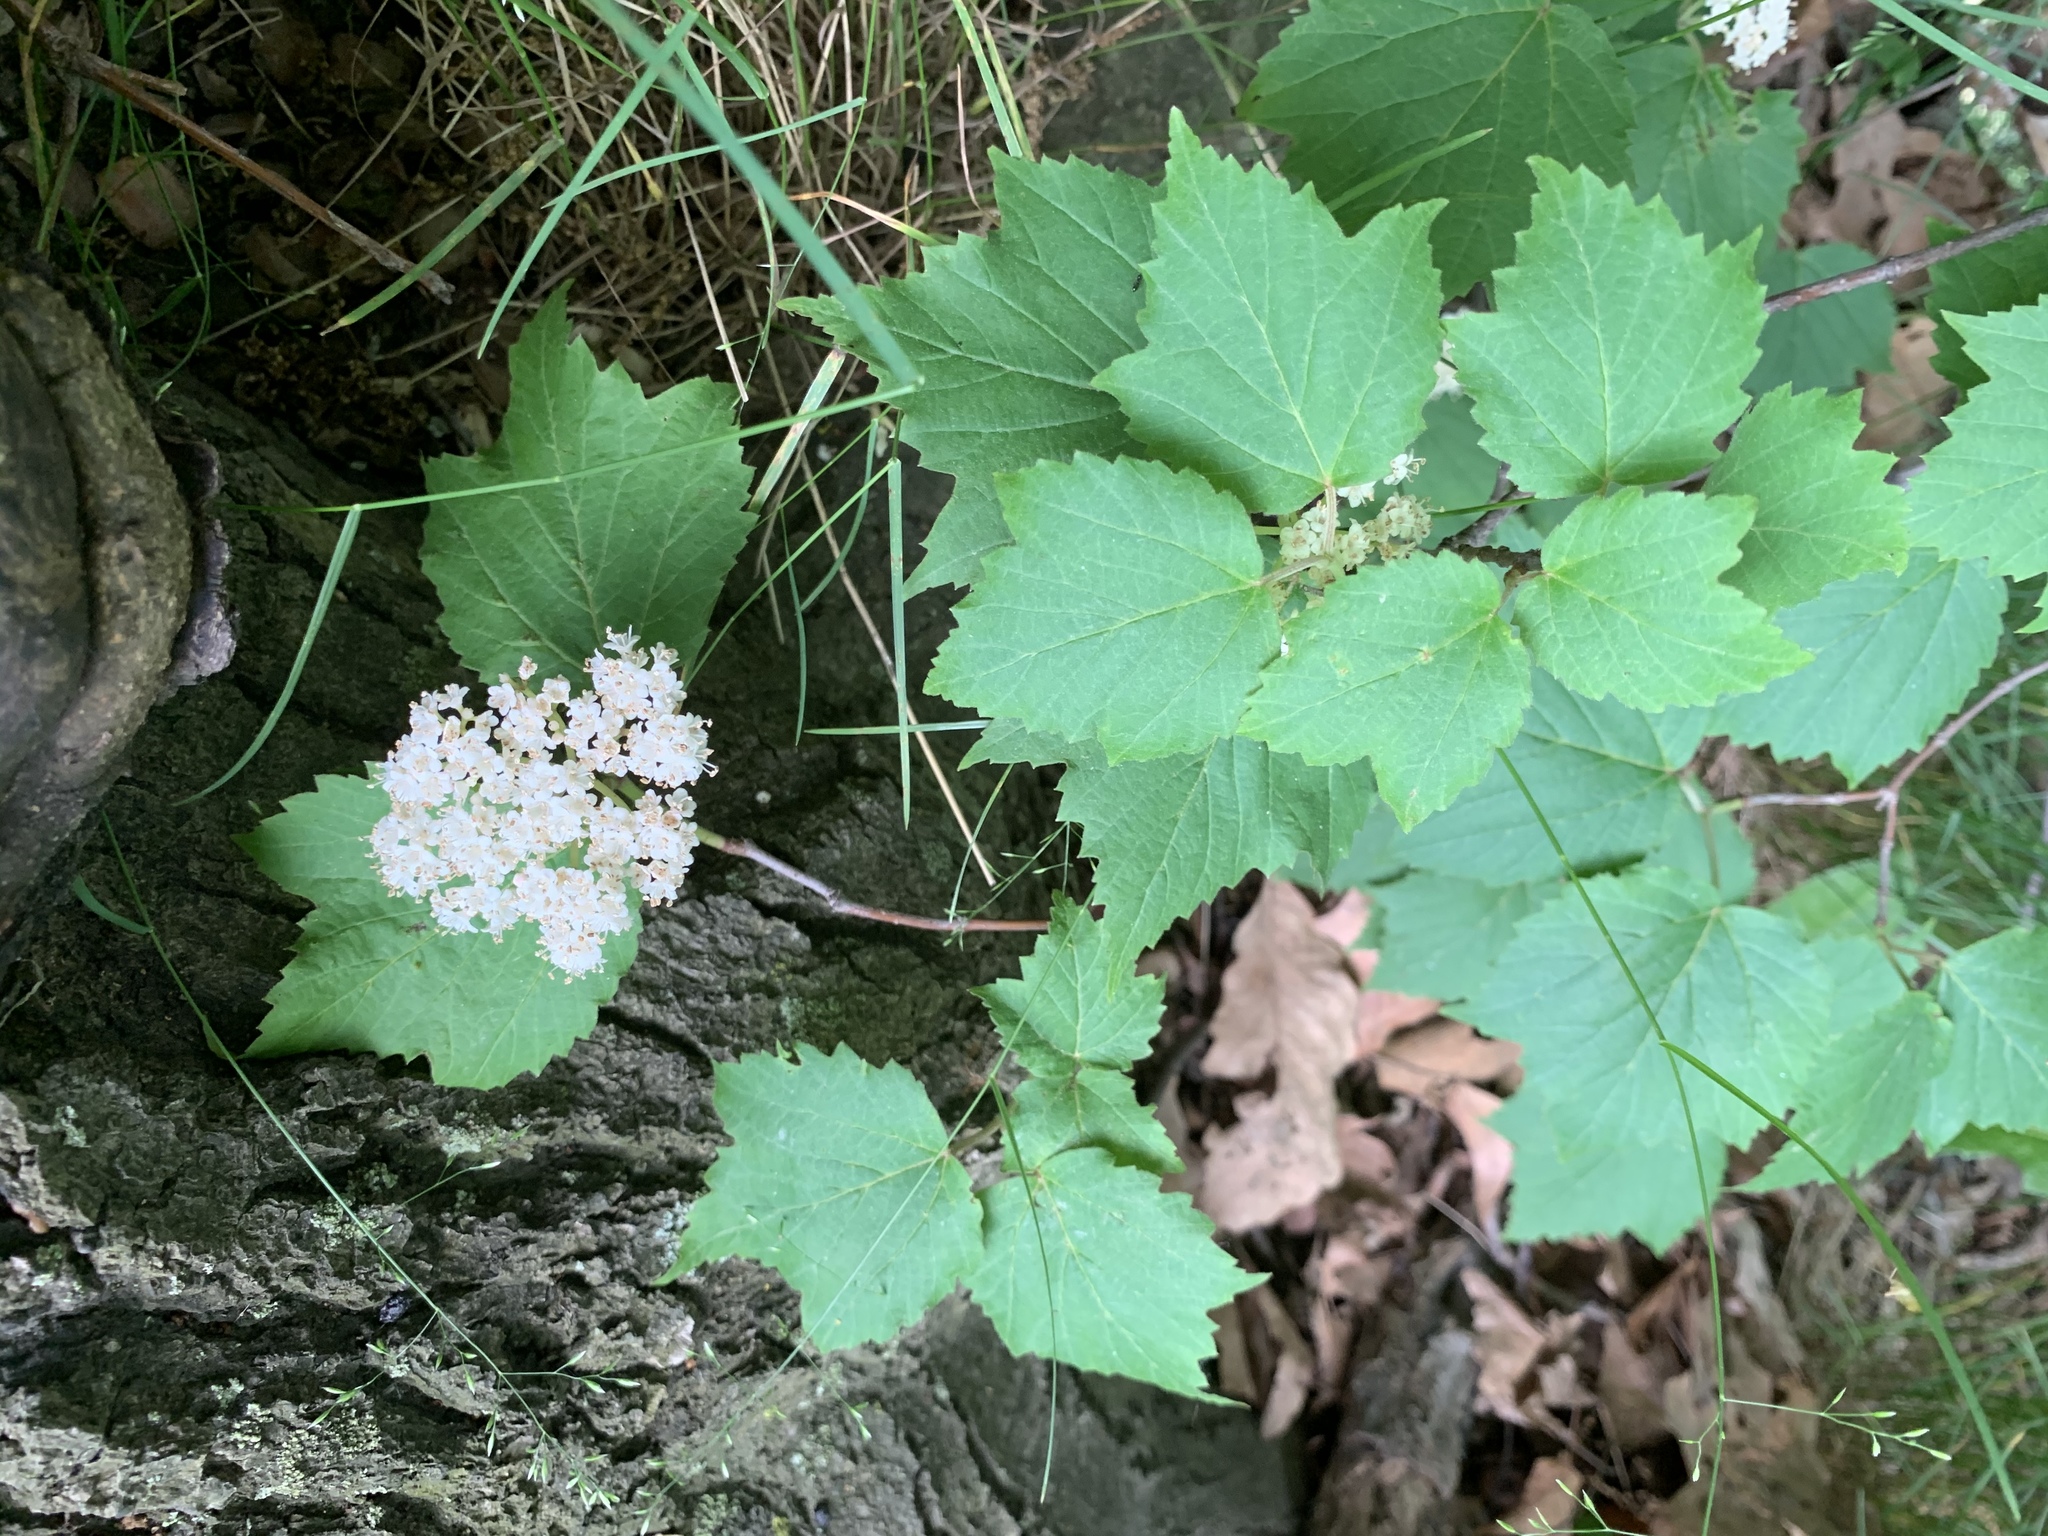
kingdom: Plantae
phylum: Tracheophyta
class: Magnoliopsida
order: Dipsacales
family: Viburnaceae
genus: Viburnum
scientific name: Viburnum acerifolium
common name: Dockmackie
